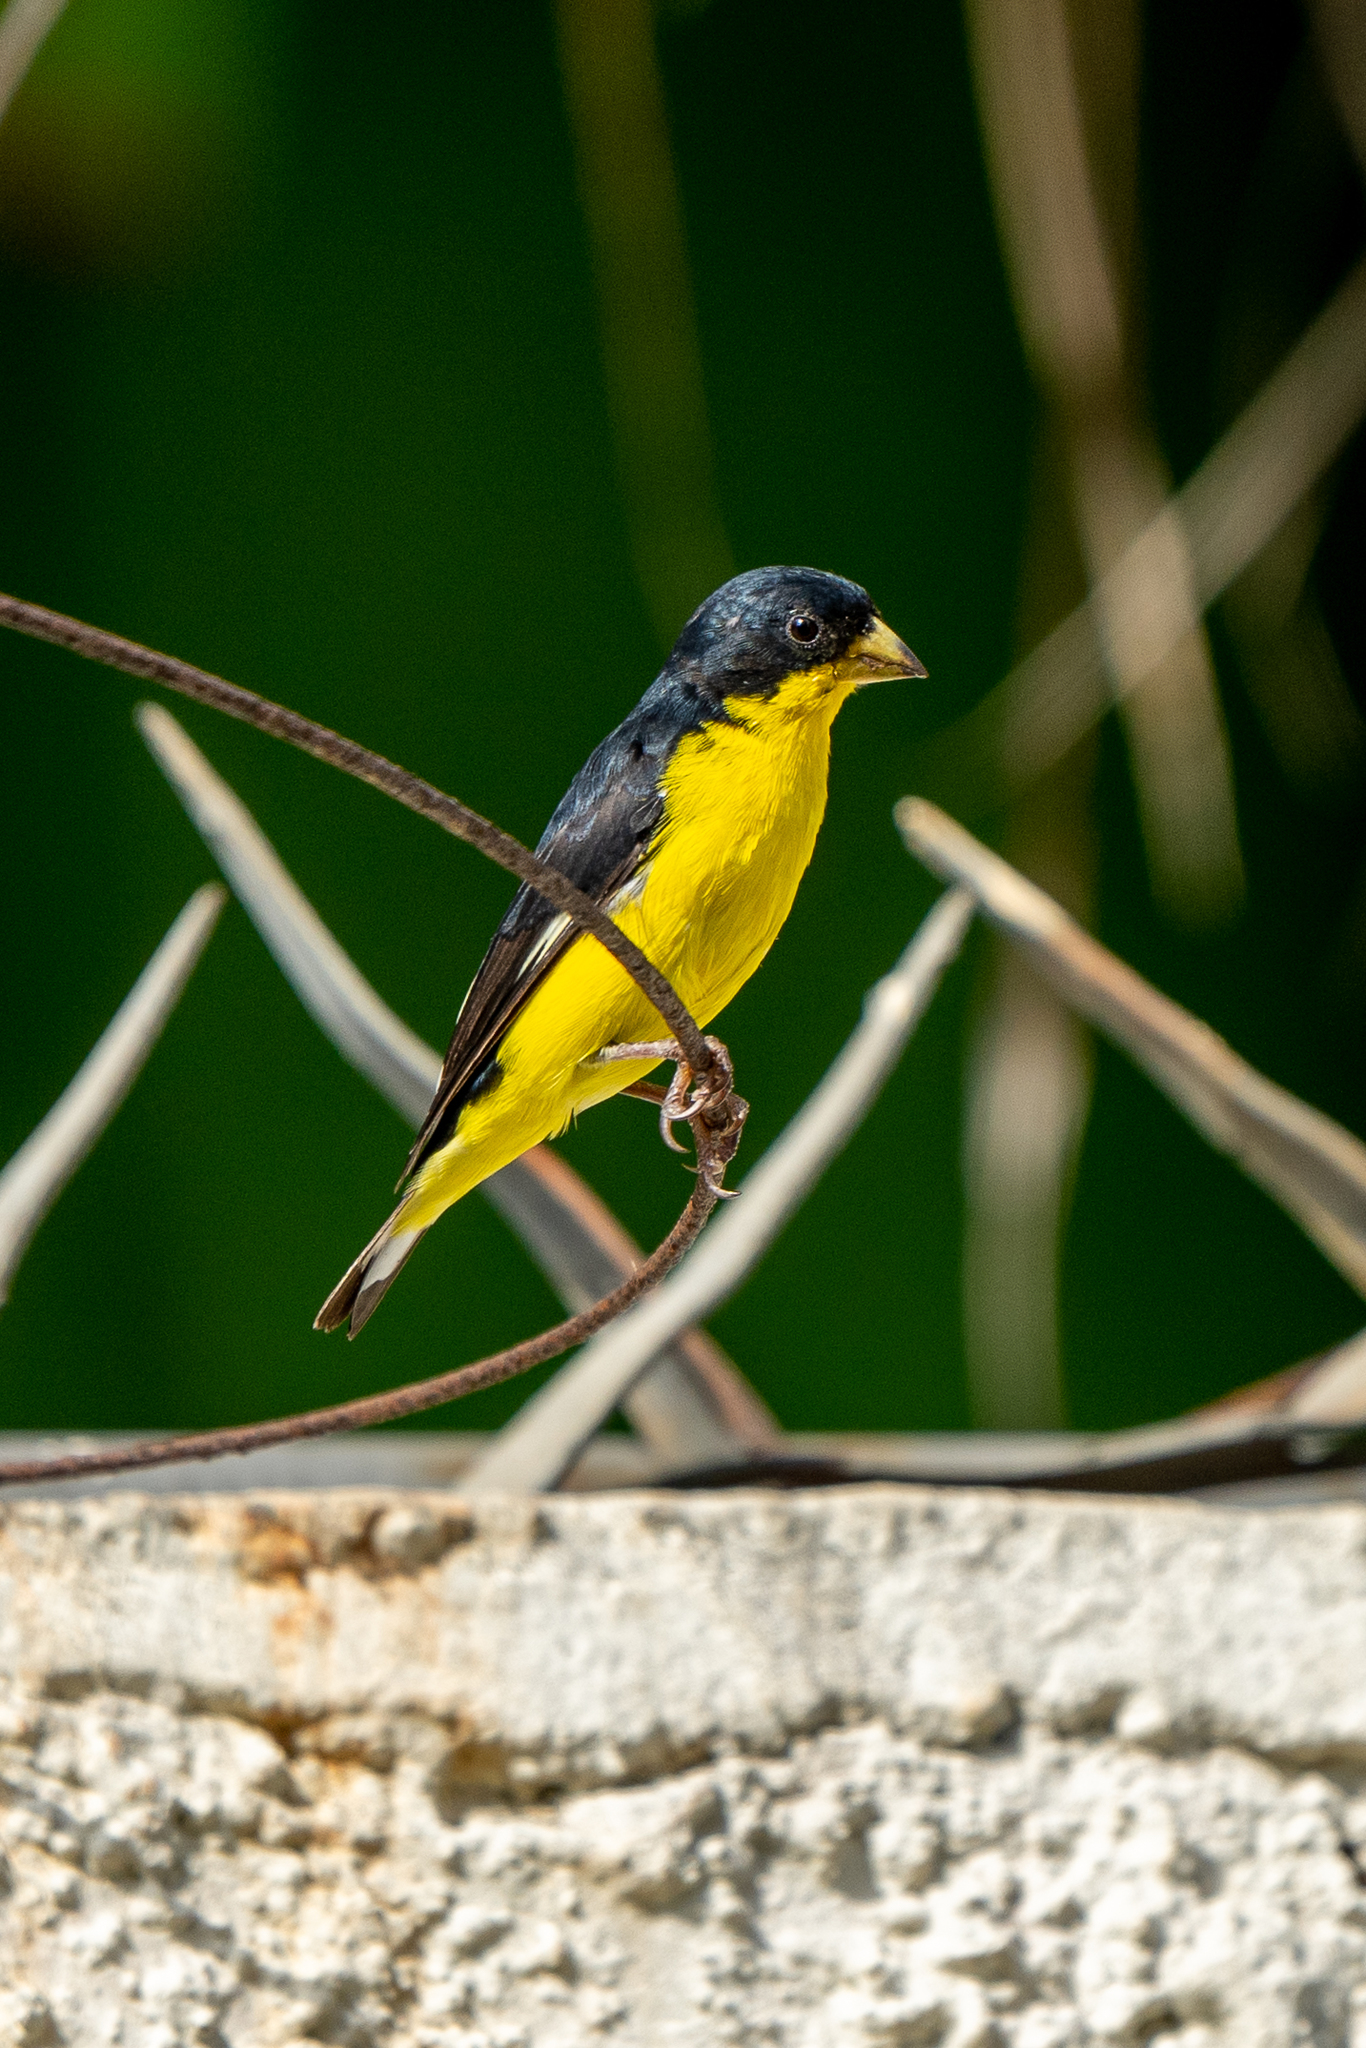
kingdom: Animalia
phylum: Chordata
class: Aves
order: Passeriformes
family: Fringillidae
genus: Spinus
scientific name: Spinus psaltria
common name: Lesser goldfinch
